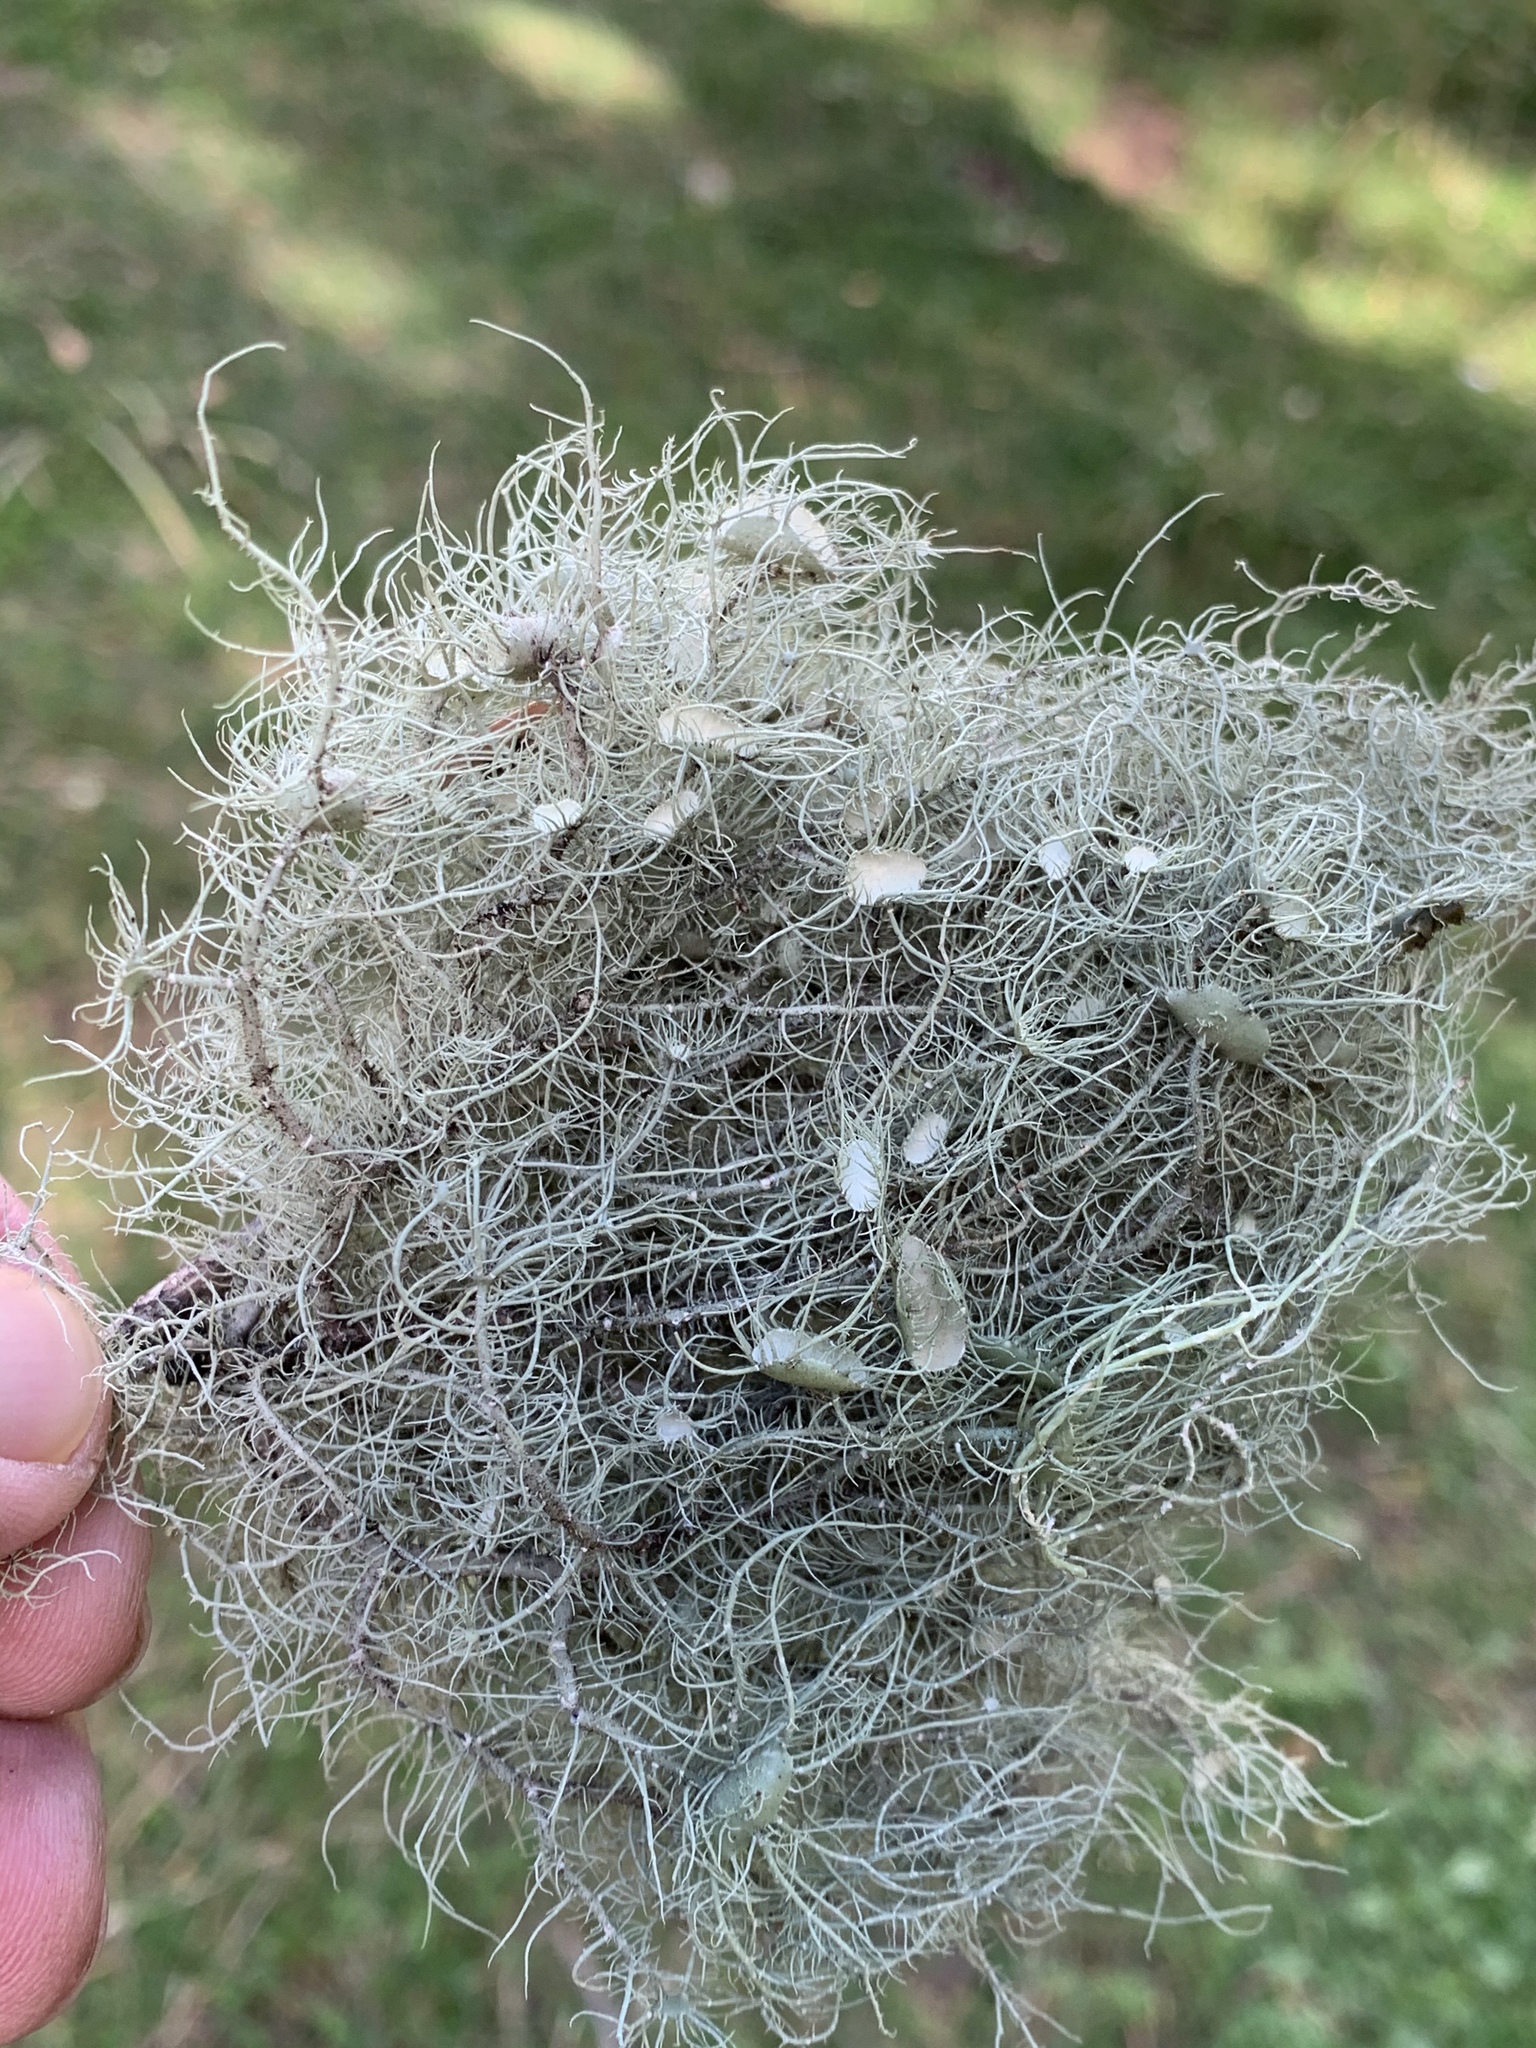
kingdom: Fungi
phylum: Ascomycota
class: Lecanoromycetes
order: Lecanorales
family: Parmeliaceae
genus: Usnea
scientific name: Usnea strigosa
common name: Bushy beard lichen
